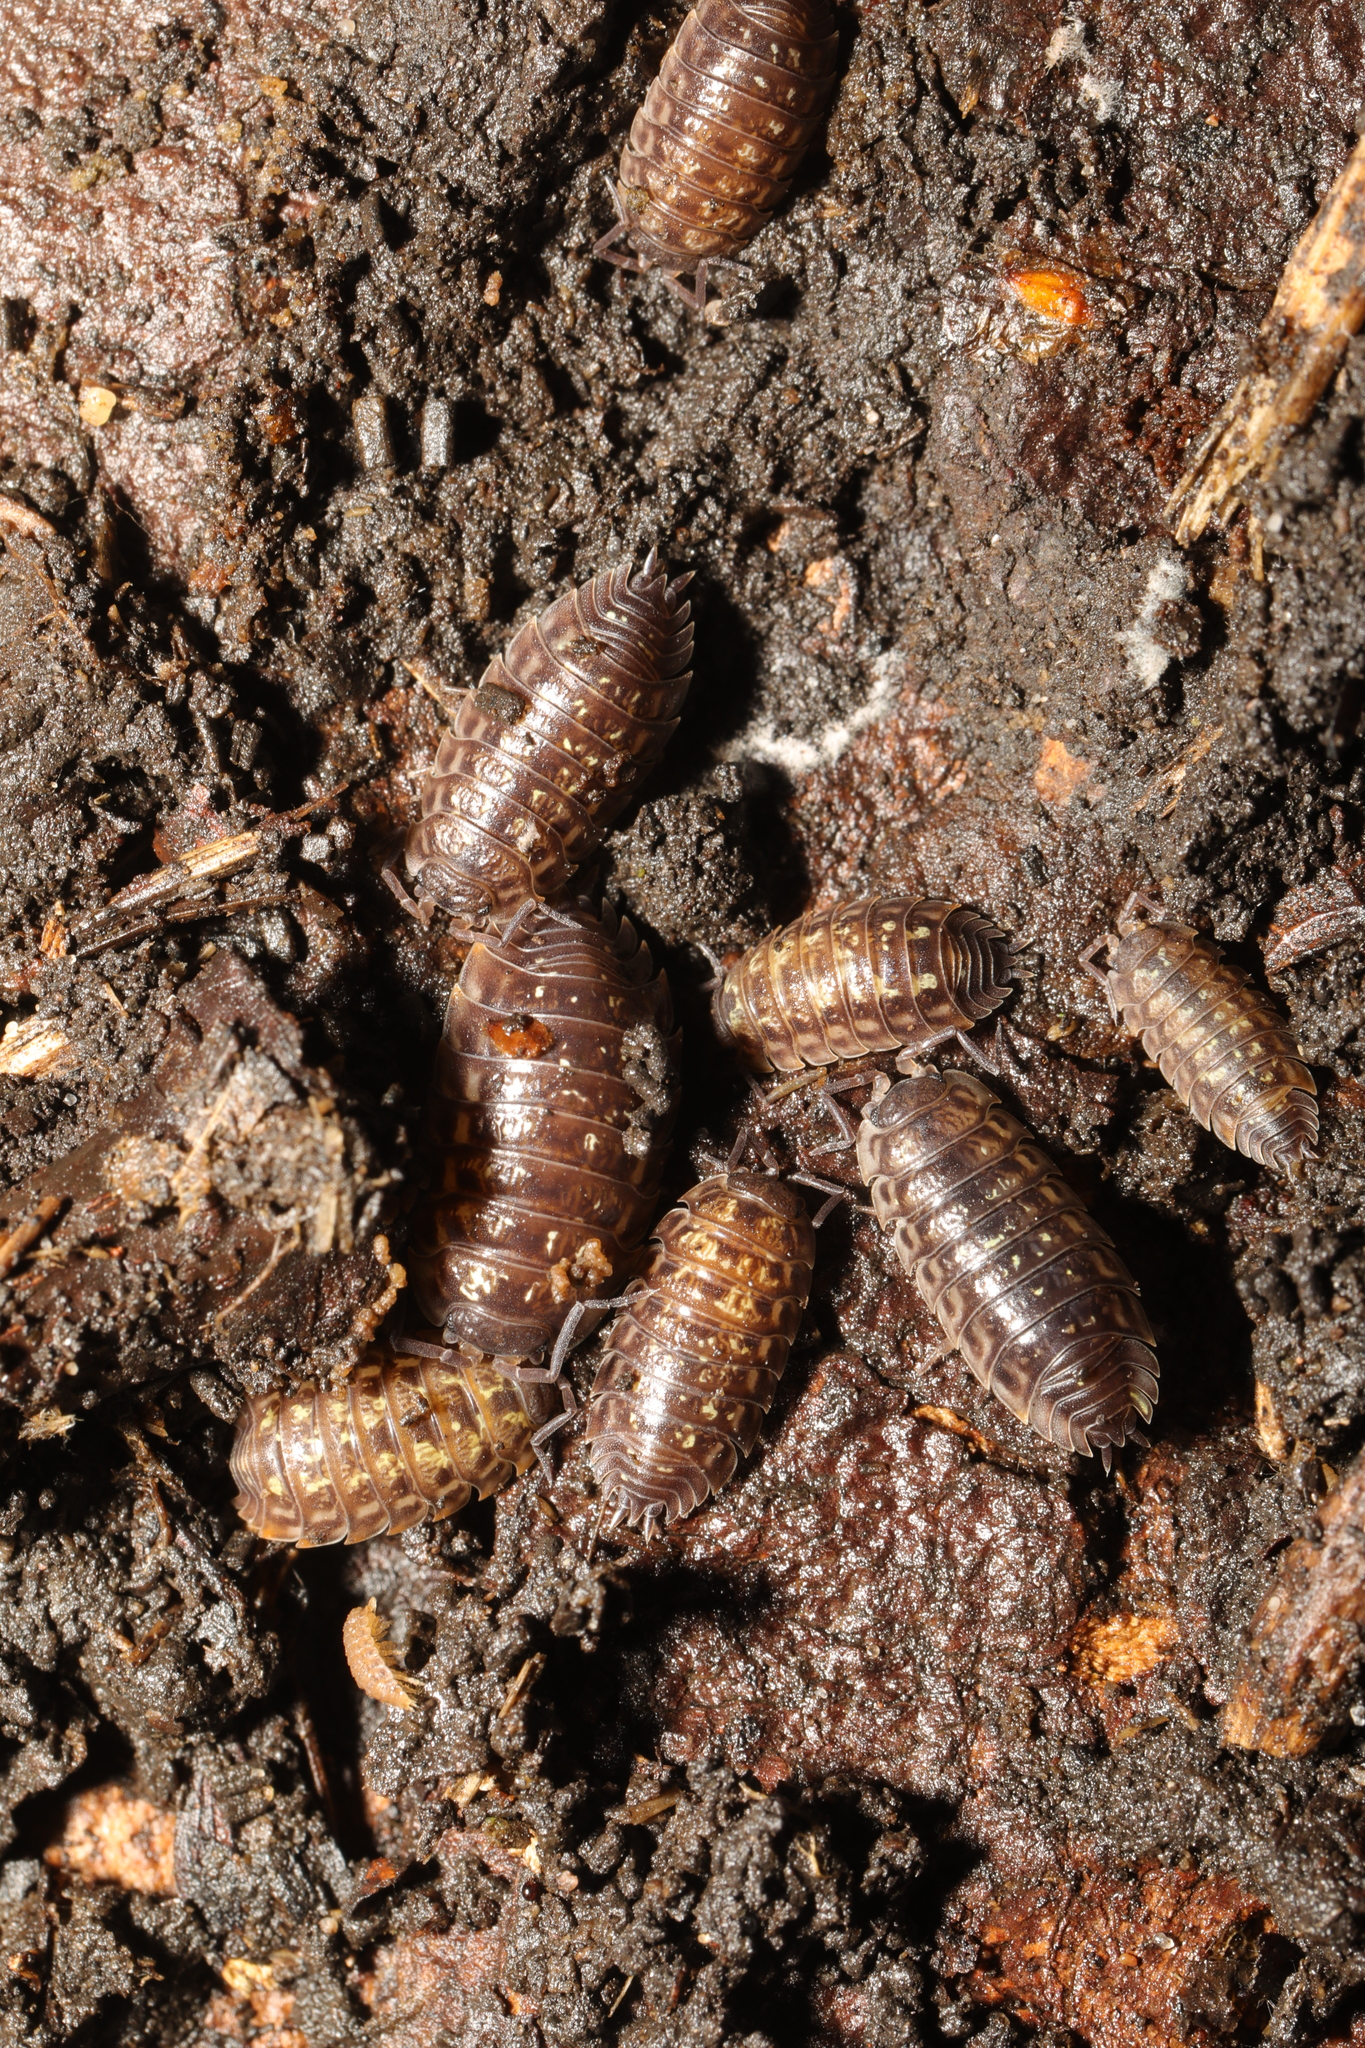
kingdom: Animalia
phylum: Arthropoda
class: Malacostraca
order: Isopoda
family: Oniscidae
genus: Oniscus
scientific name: Oniscus asellus
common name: Common shiny woodlouse
